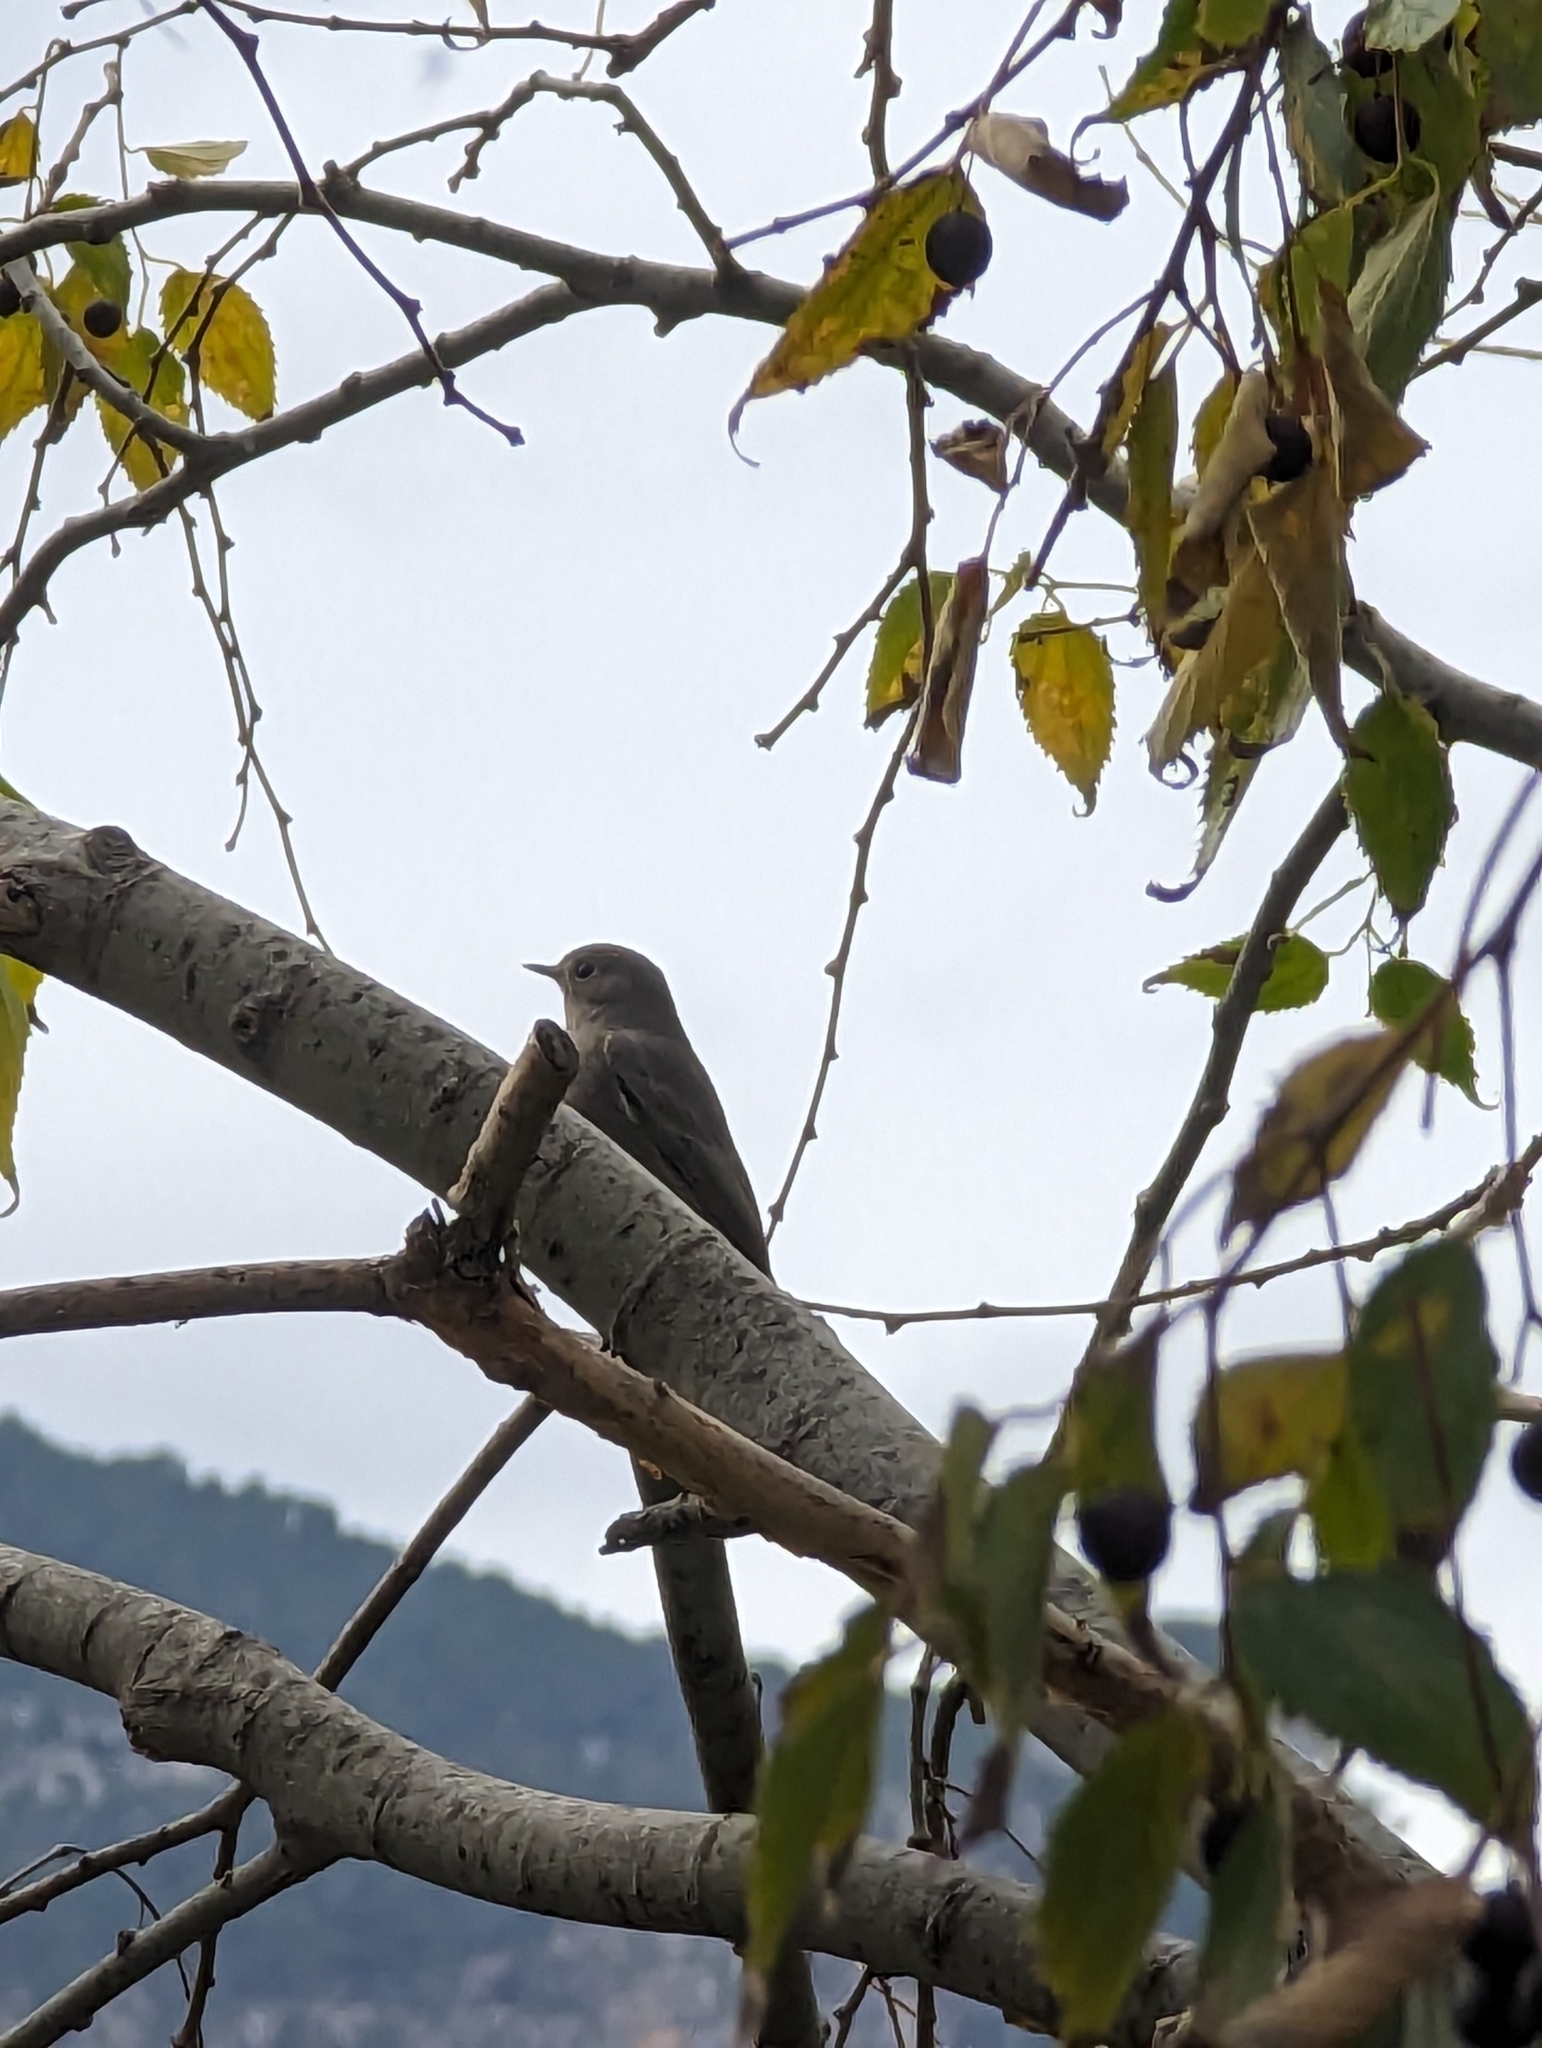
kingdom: Animalia
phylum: Chordata
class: Aves
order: Passeriformes
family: Muscicapidae
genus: Phoenicurus
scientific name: Phoenicurus ochruros
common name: Black redstart
